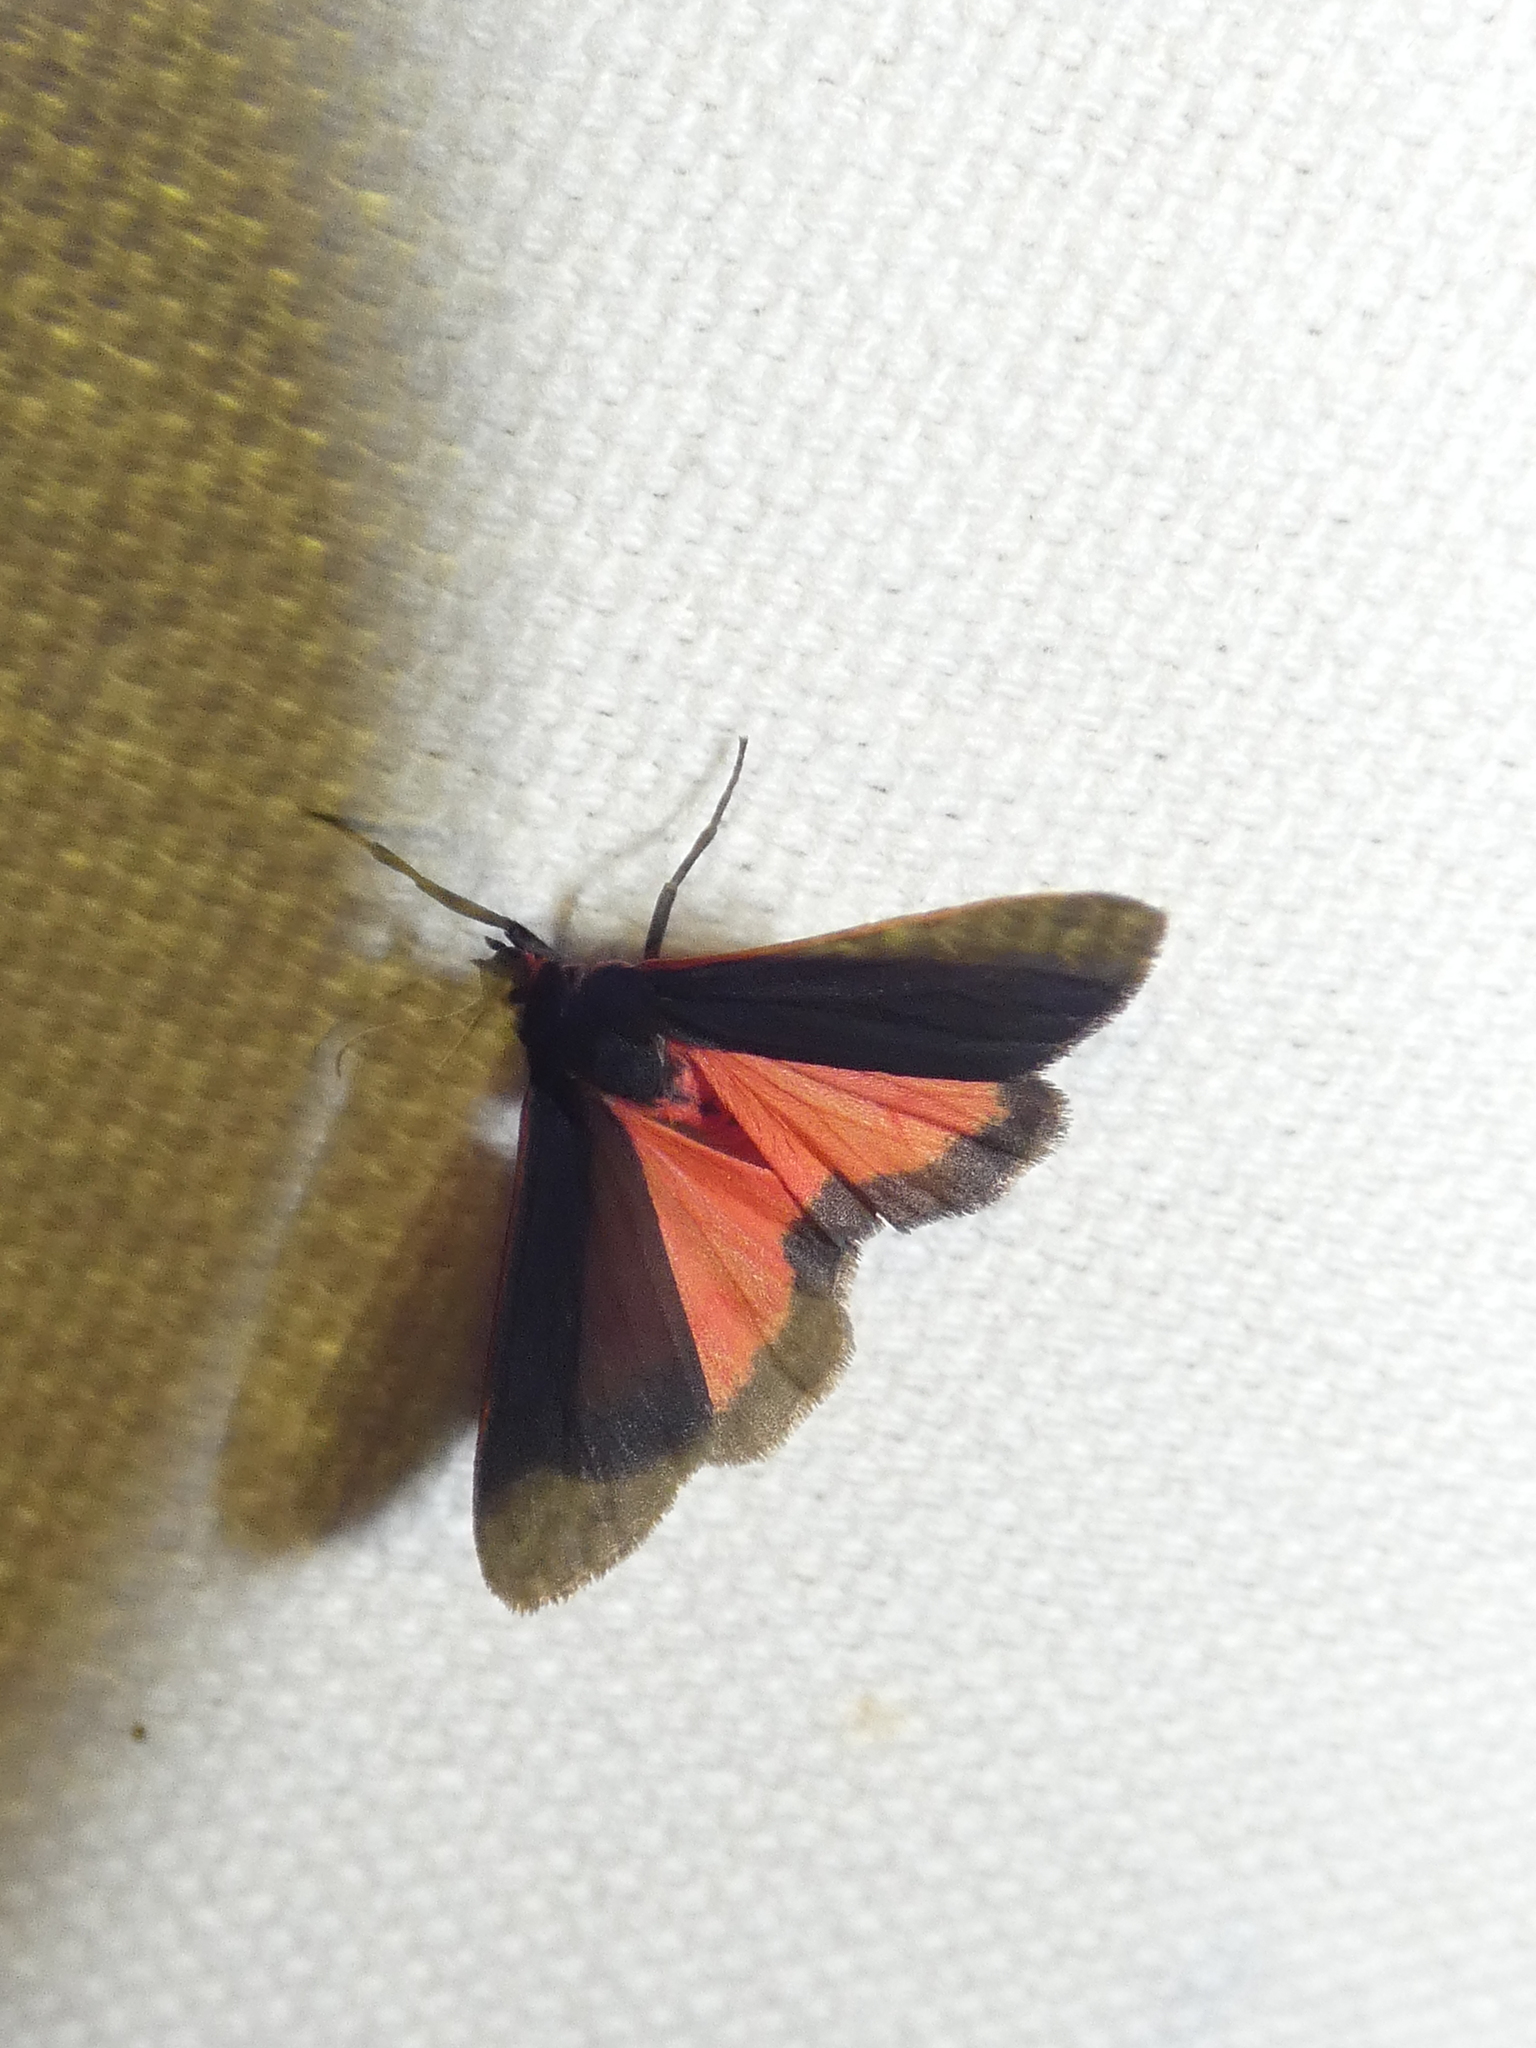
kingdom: Animalia
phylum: Arthropoda
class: Insecta
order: Lepidoptera
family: Erebidae
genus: Virbia
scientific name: Virbia laeta
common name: Joyful holomelina moth
